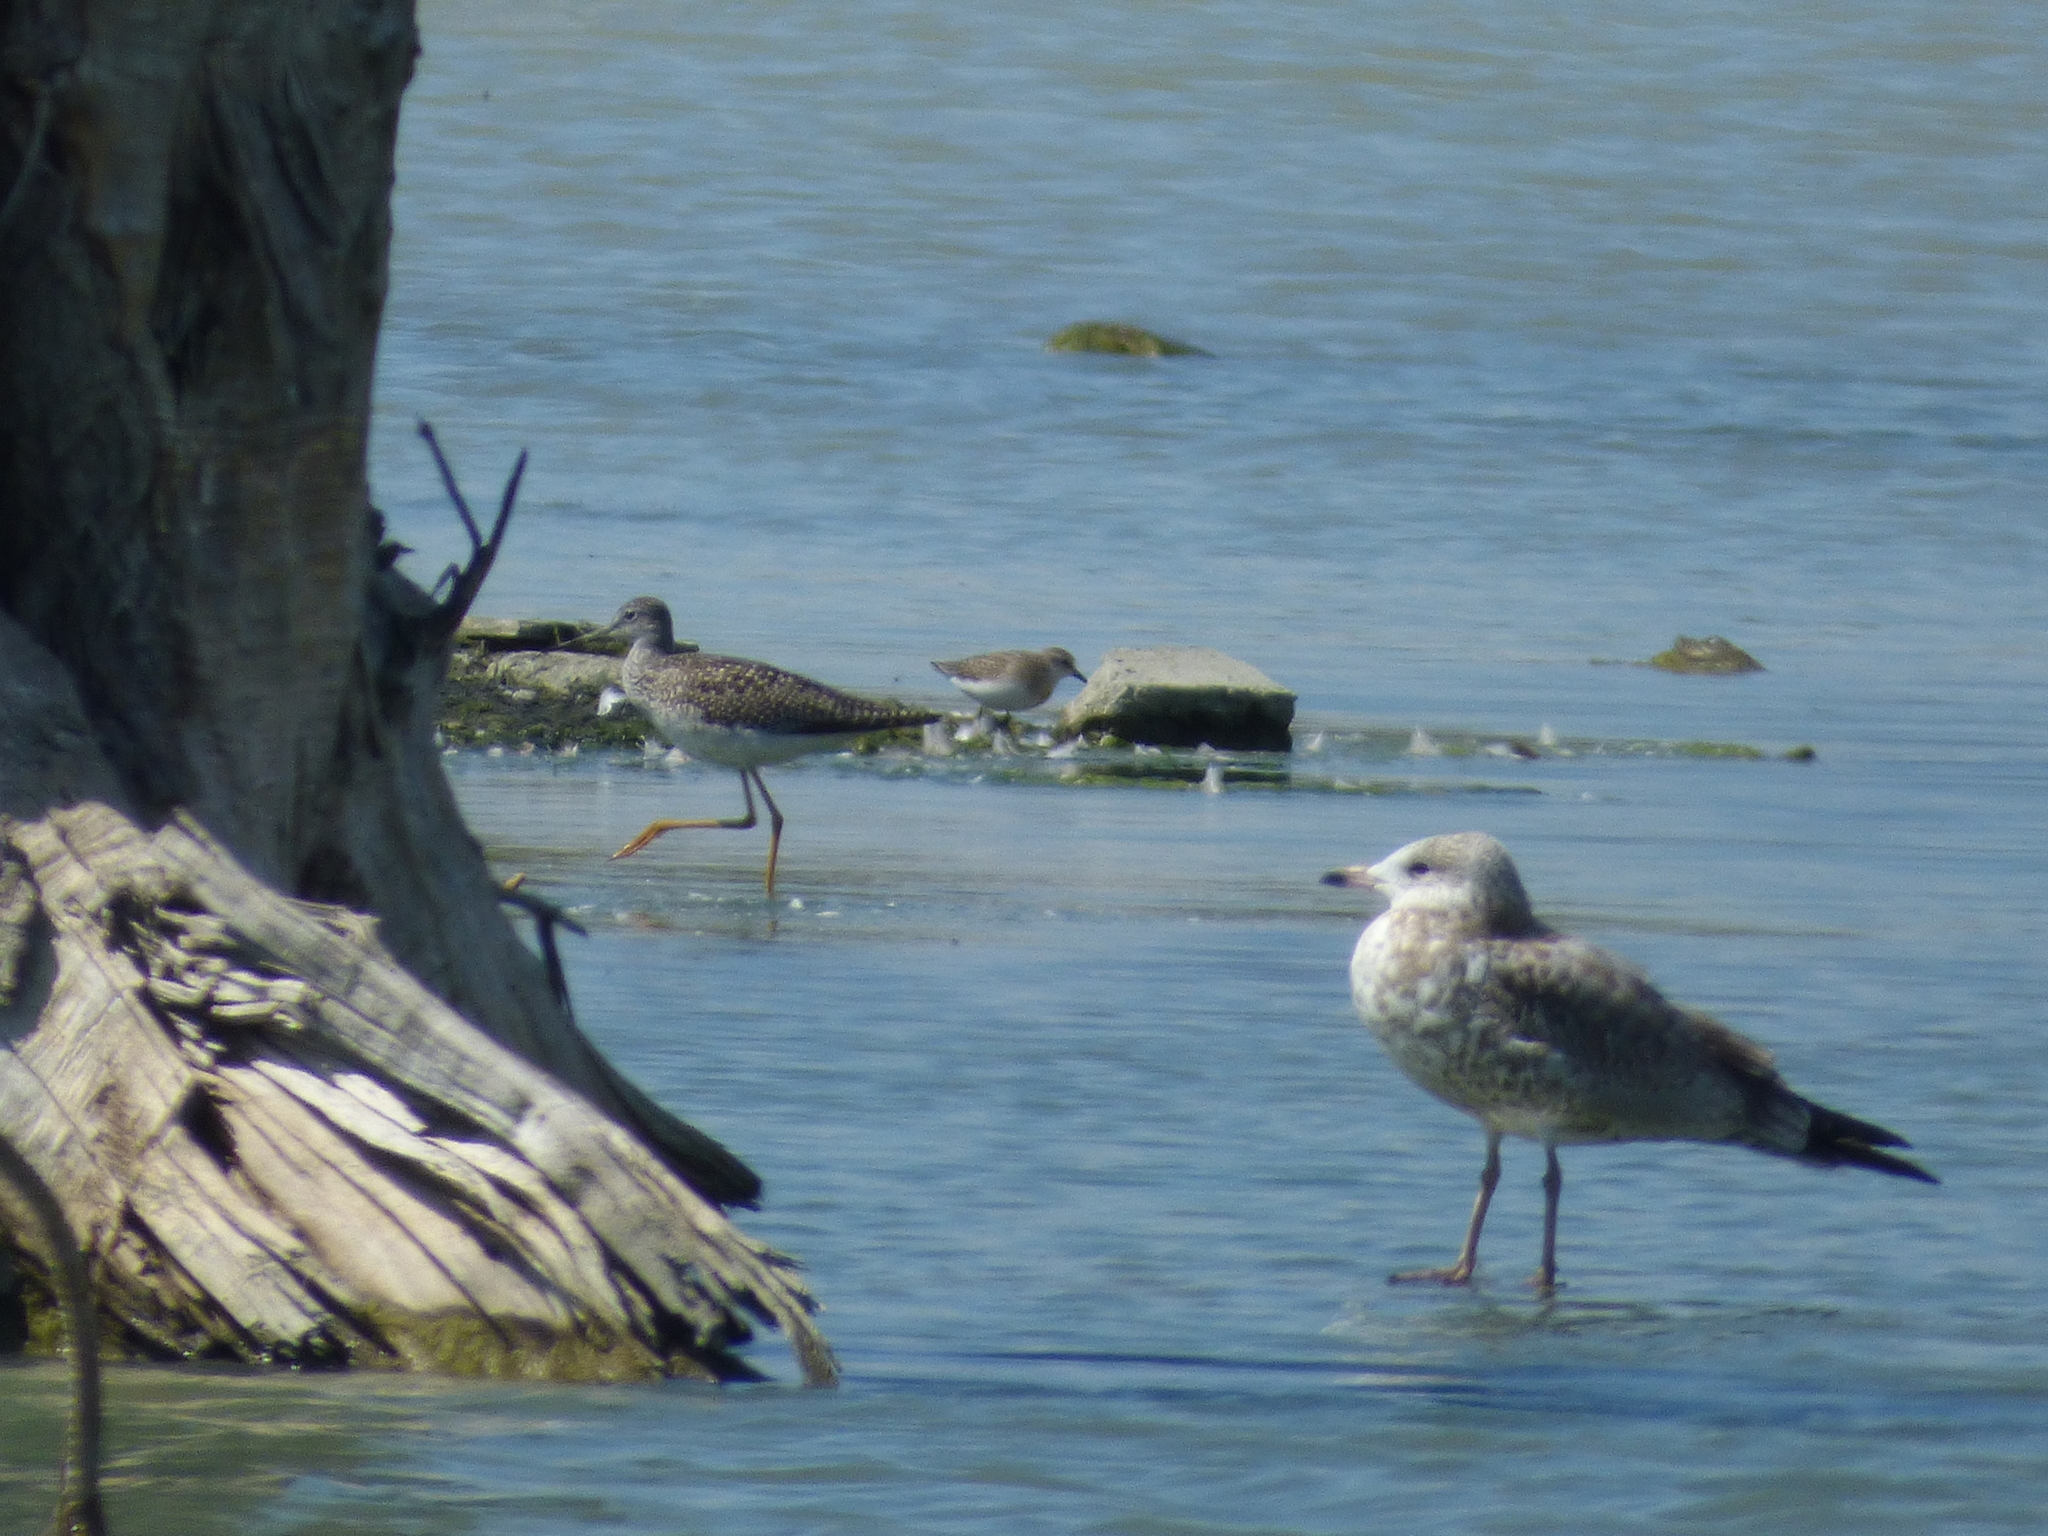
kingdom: Animalia
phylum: Chordata
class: Aves
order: Charadriiformes
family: Scolopacidae
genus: Calidris
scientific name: Calidris pusilla
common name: Semipalmated sandpiper
